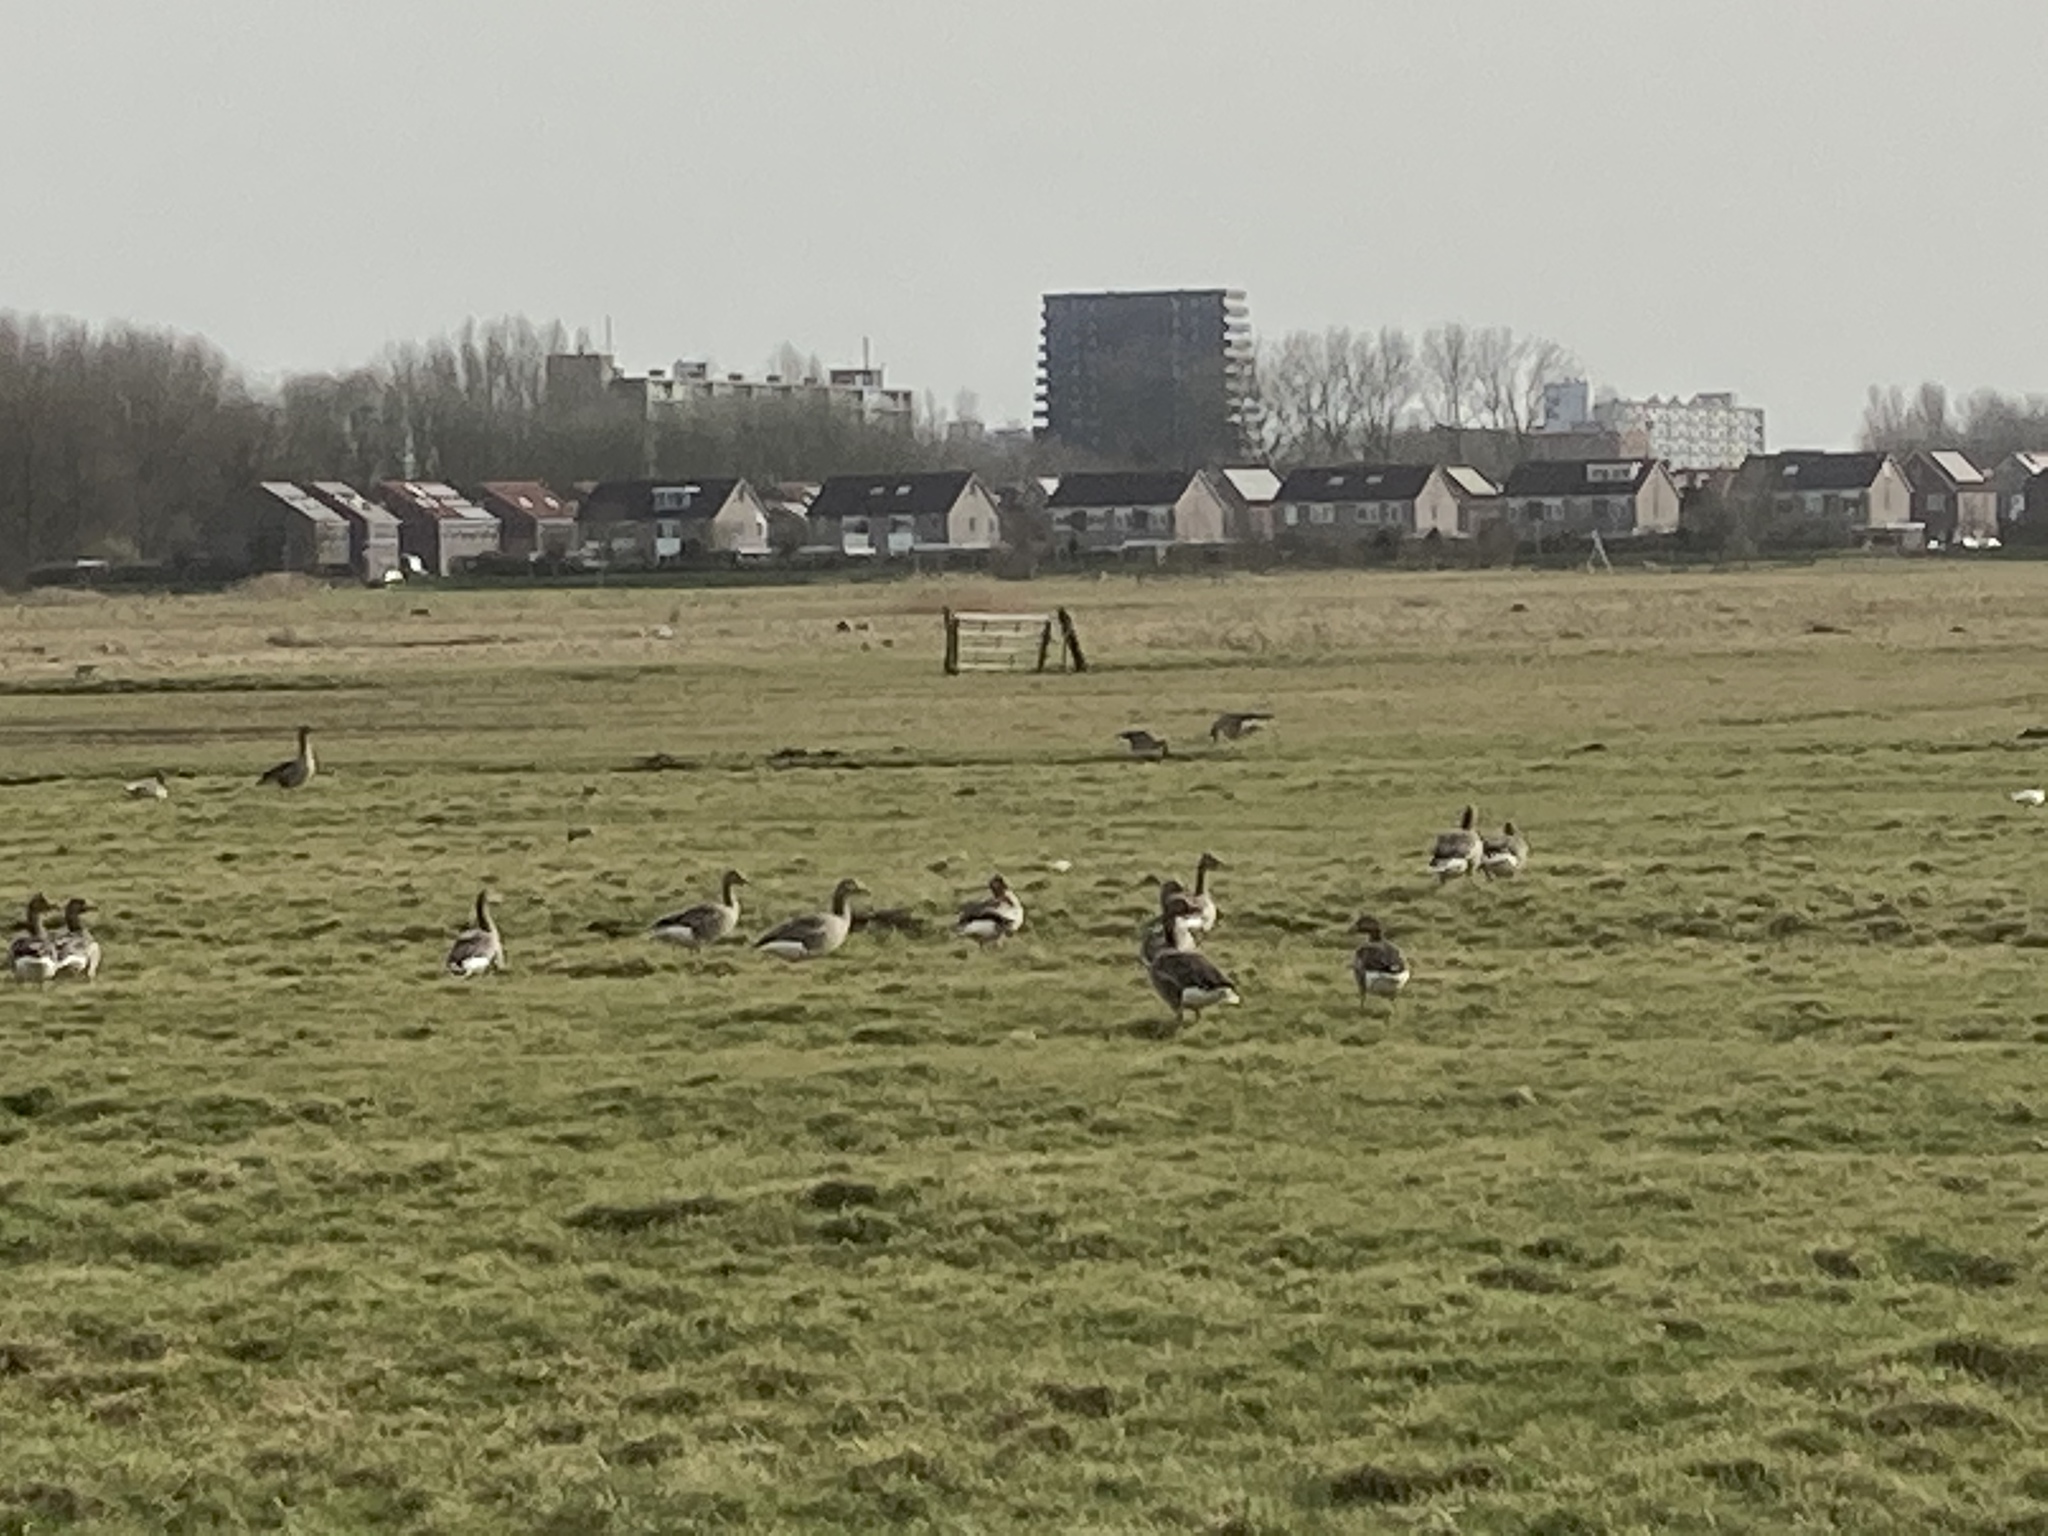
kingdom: Animalia
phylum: Chordata
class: Aves
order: Anseriformes
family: Anatidae
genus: Anser
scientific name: Anser anser
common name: Greylag goose
